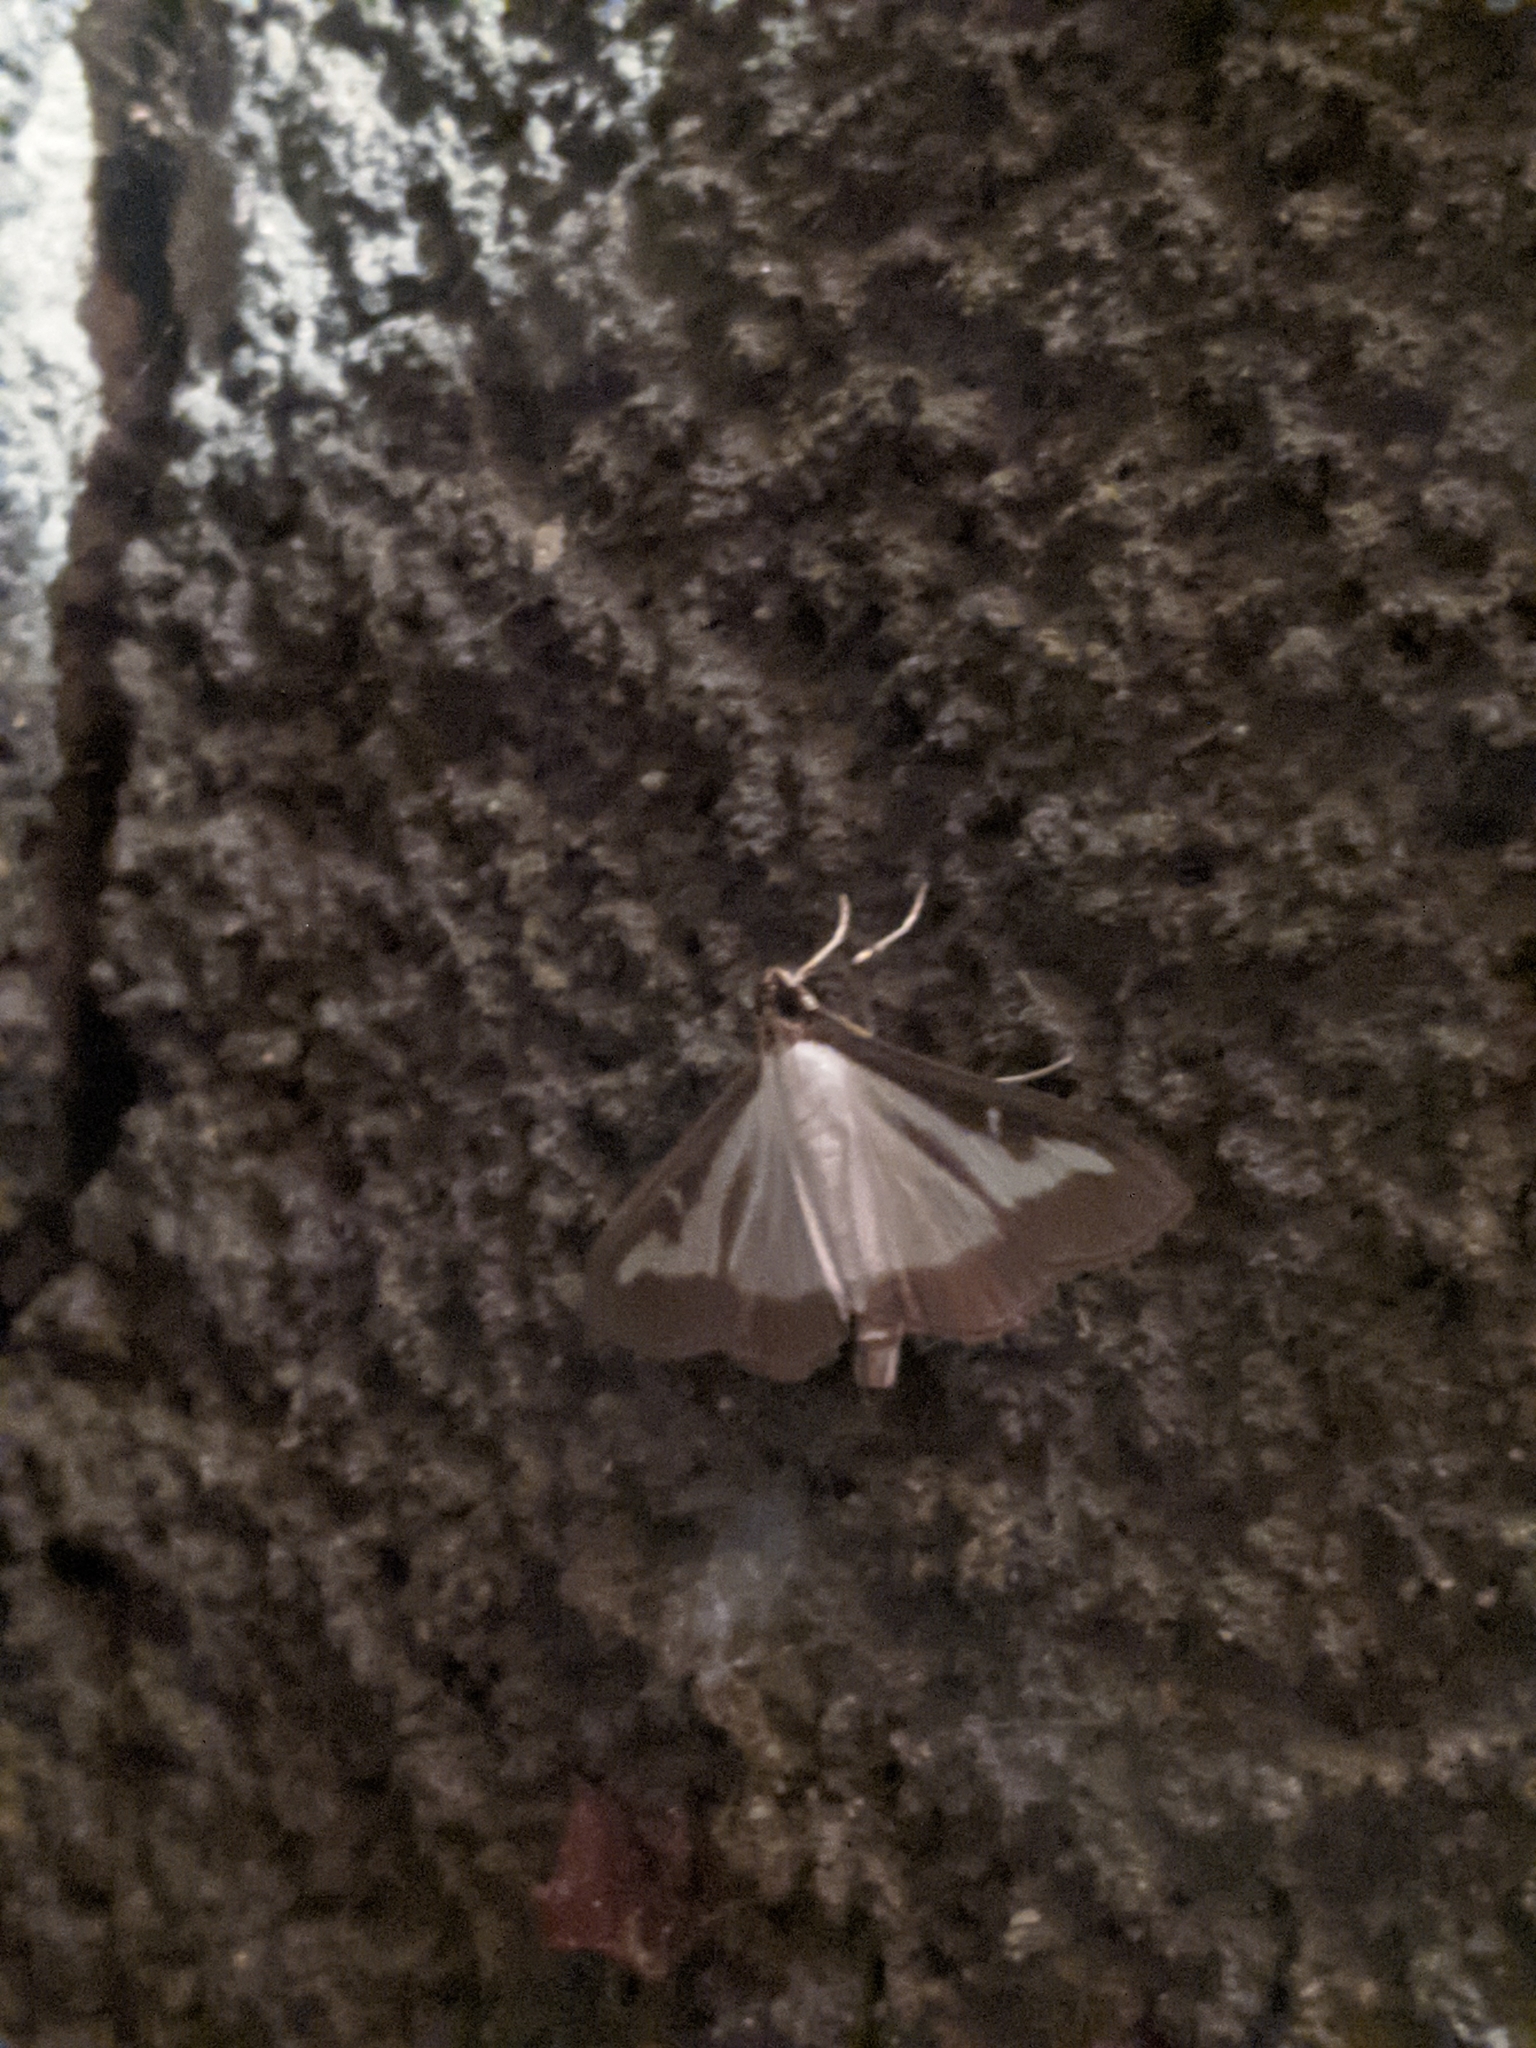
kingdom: Animalia
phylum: Arthropoda
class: Insecta
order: Lepidoptera
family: Crambidae
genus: Cydalima
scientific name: Cydalima perspectalis
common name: Box tree moth
